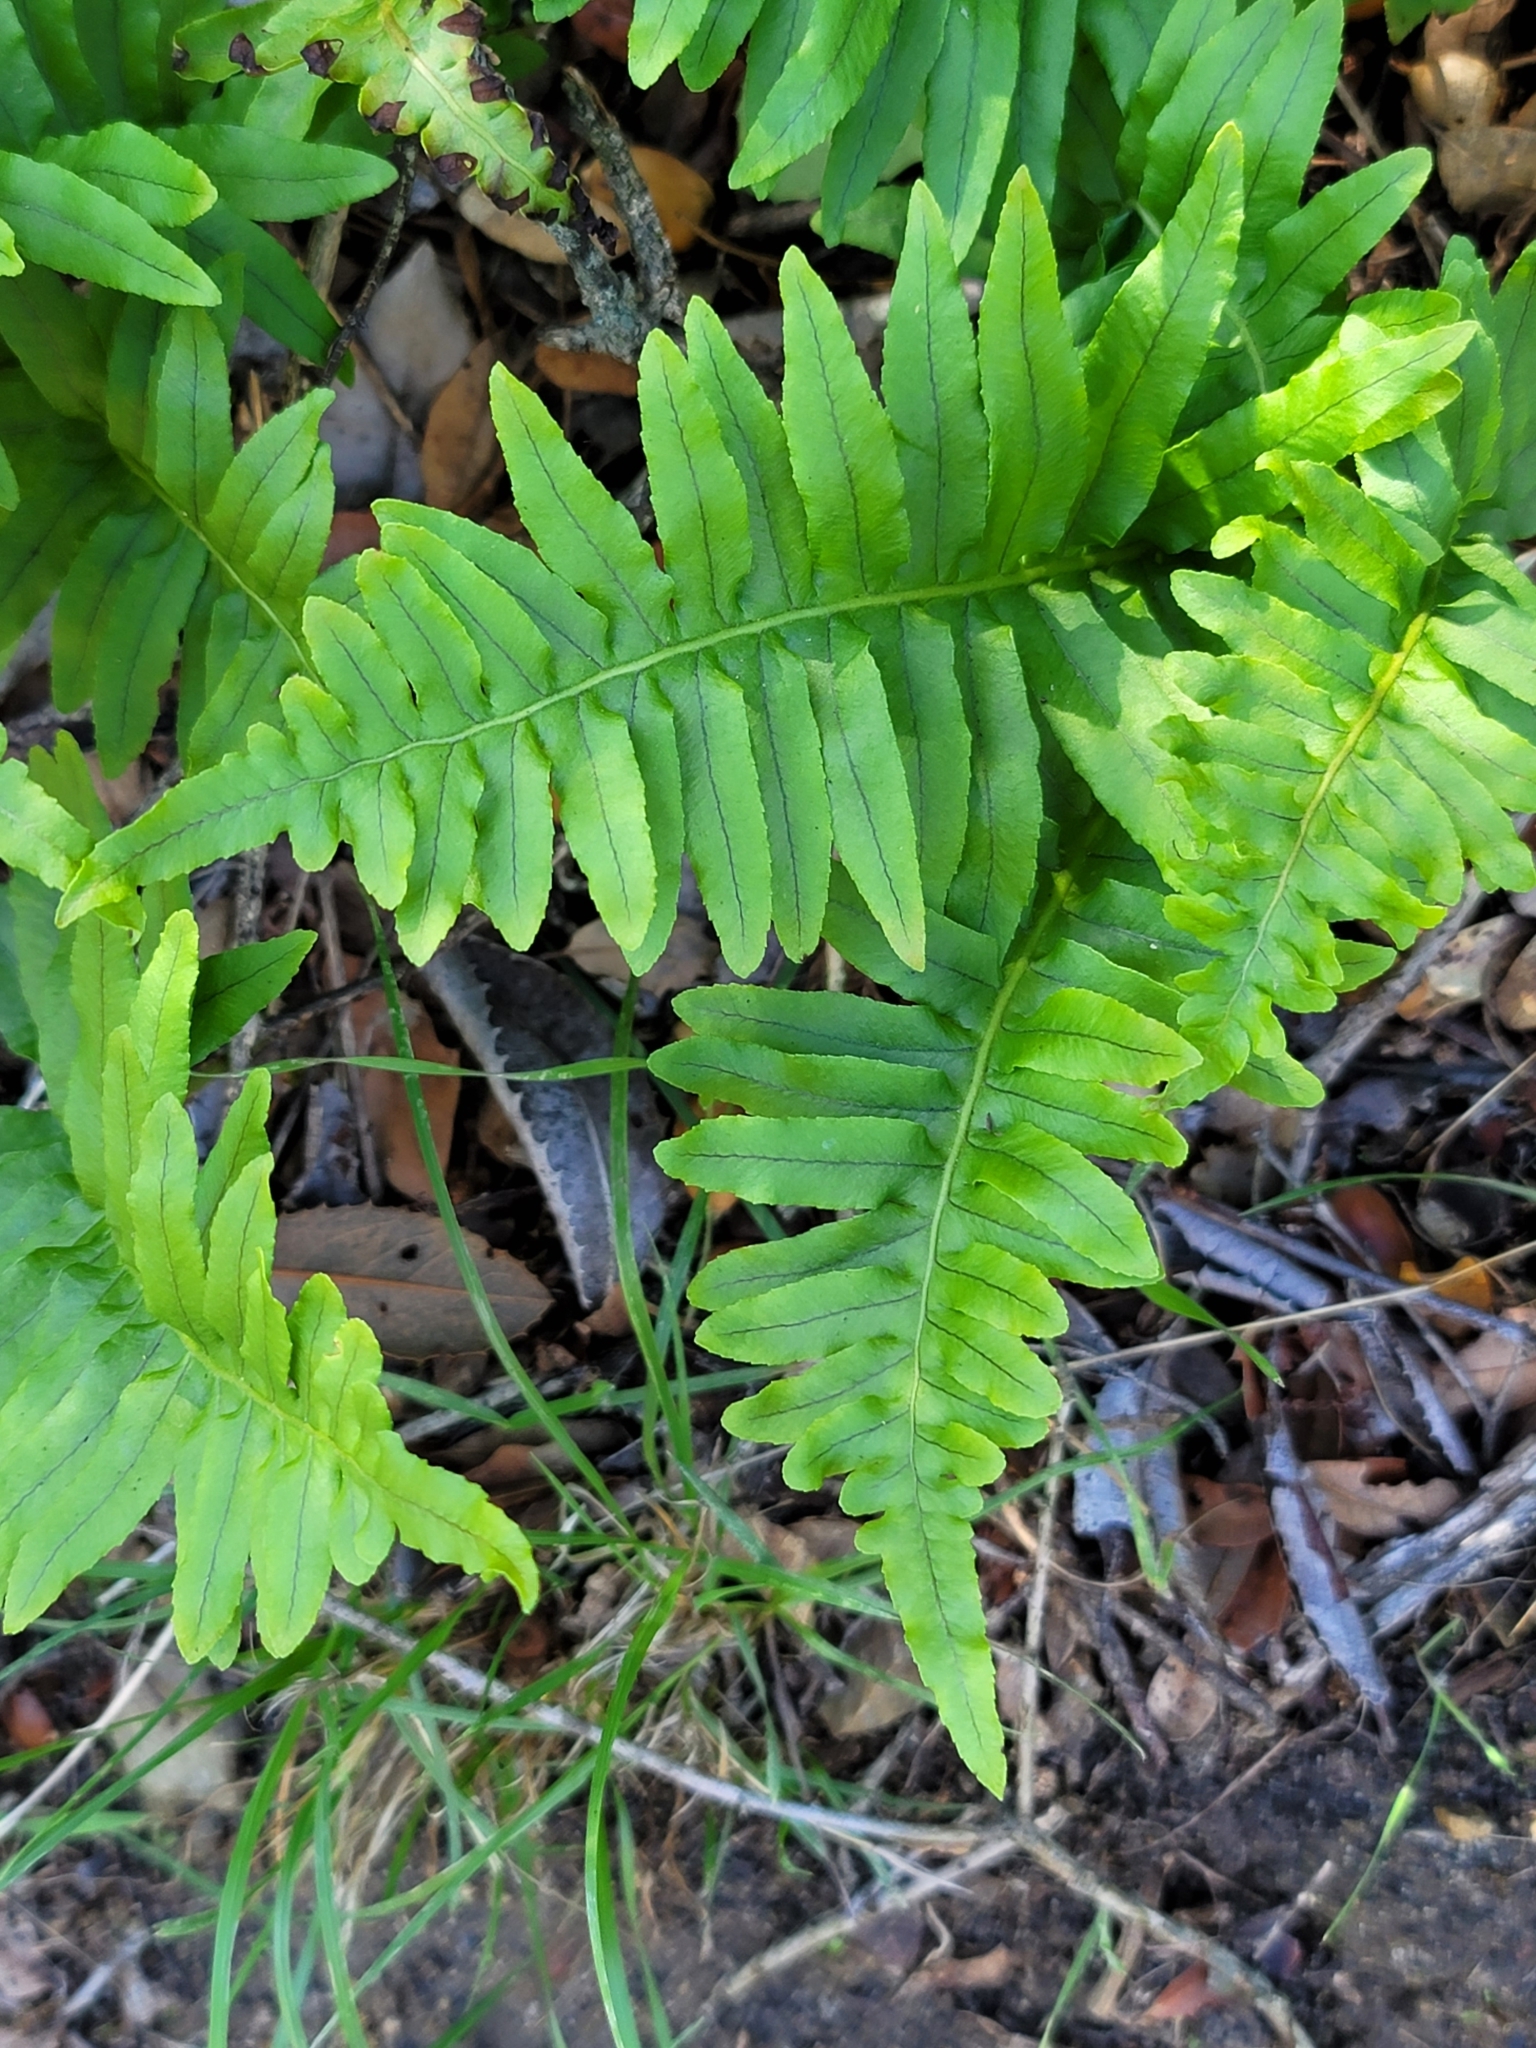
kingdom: Plantae
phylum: Tracheophyta
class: Polypodiopsida
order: Polypodiales
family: Polypodiaceae
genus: Polypodium
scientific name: Polypodium californicum
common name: California polypody
